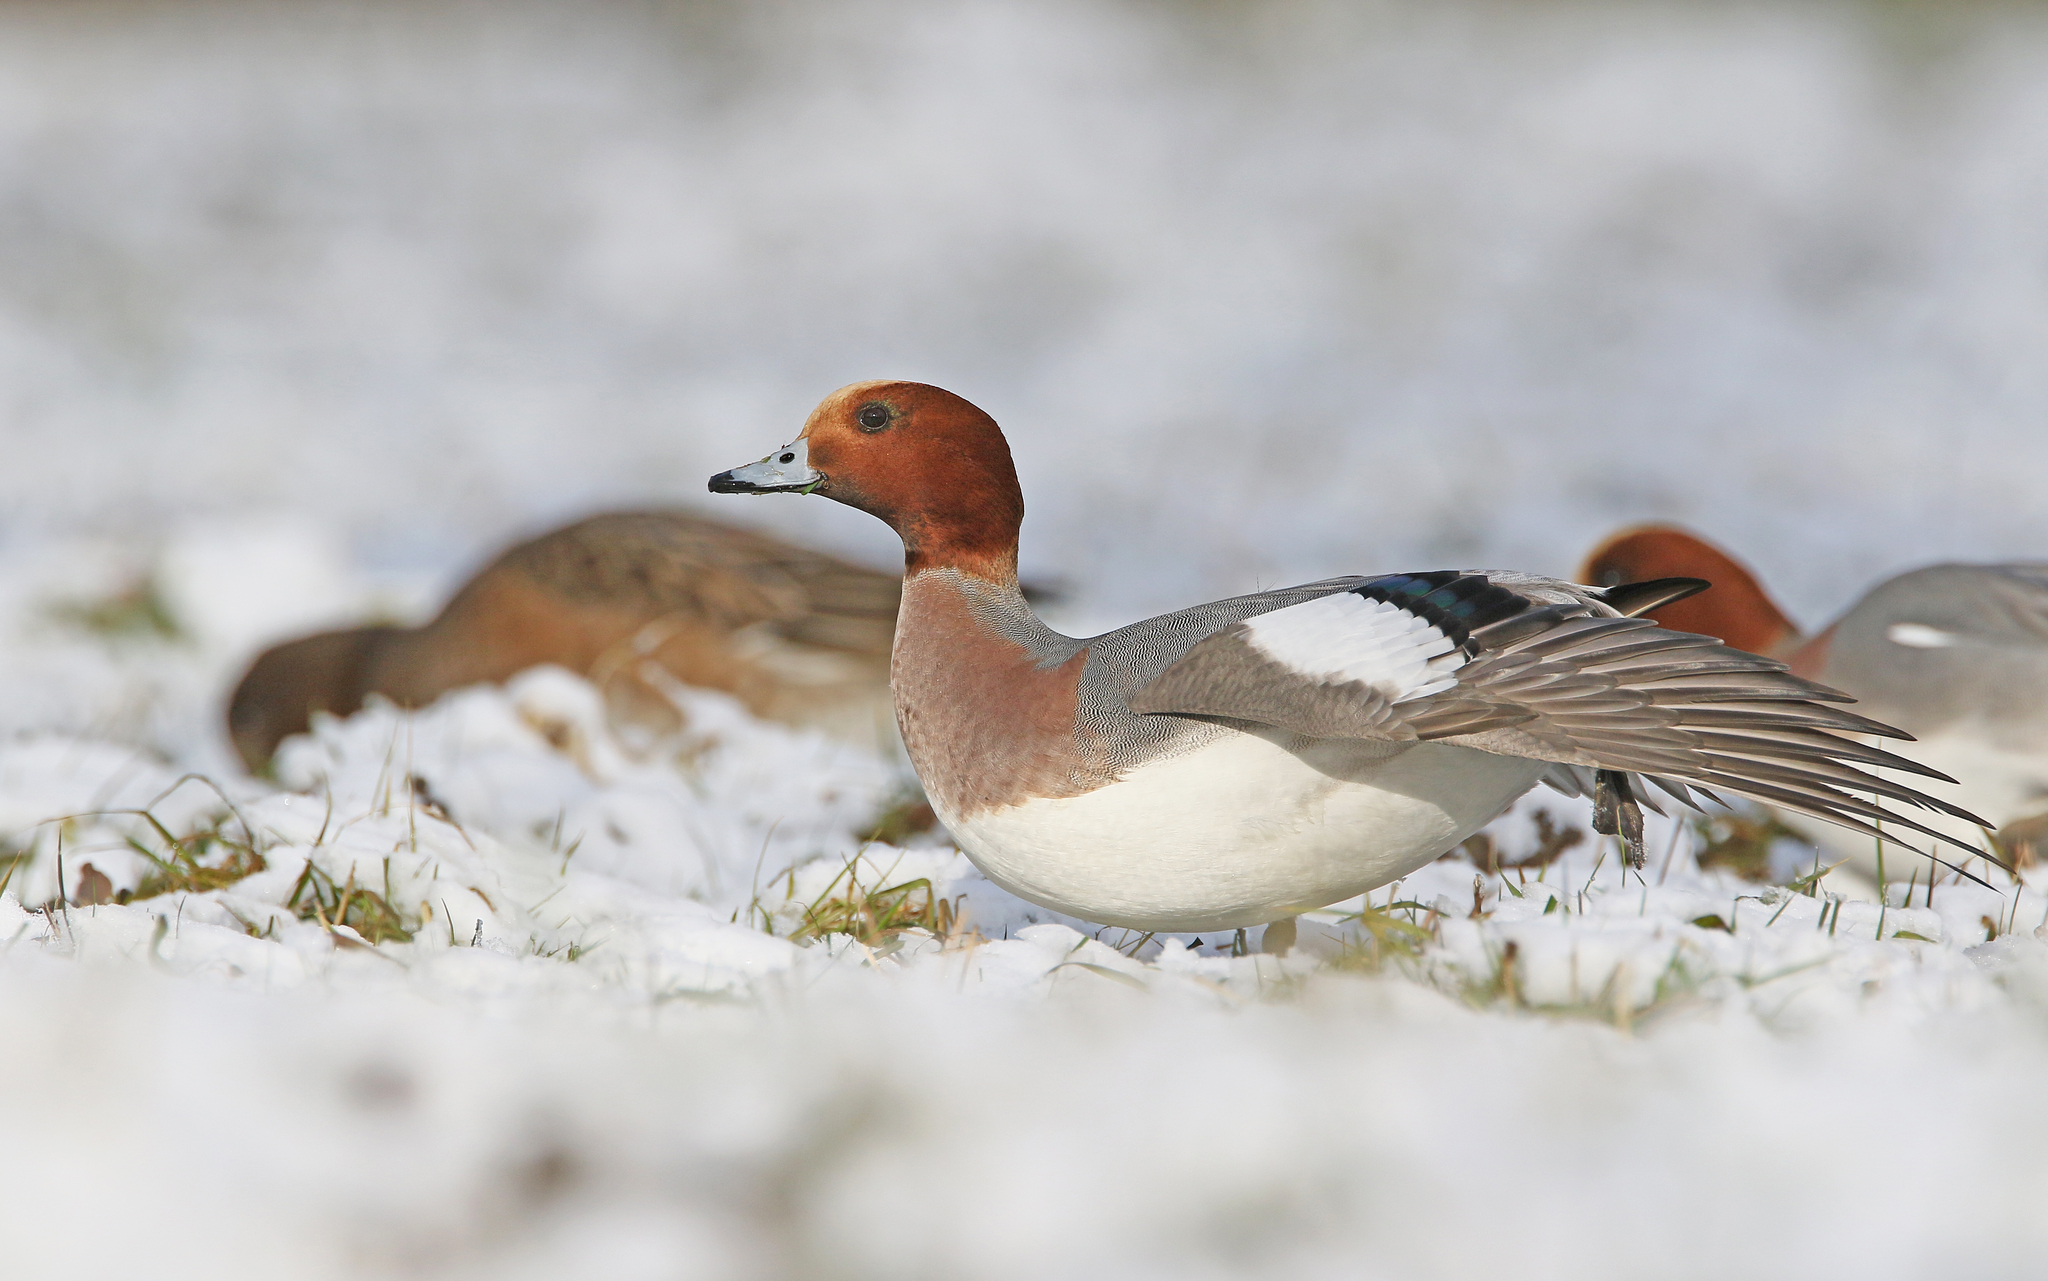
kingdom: Animalia
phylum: Chordata
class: Aves
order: Anseriformes
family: Anatidae
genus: Mareca
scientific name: Mareca penelope
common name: Eurasian wigeon
